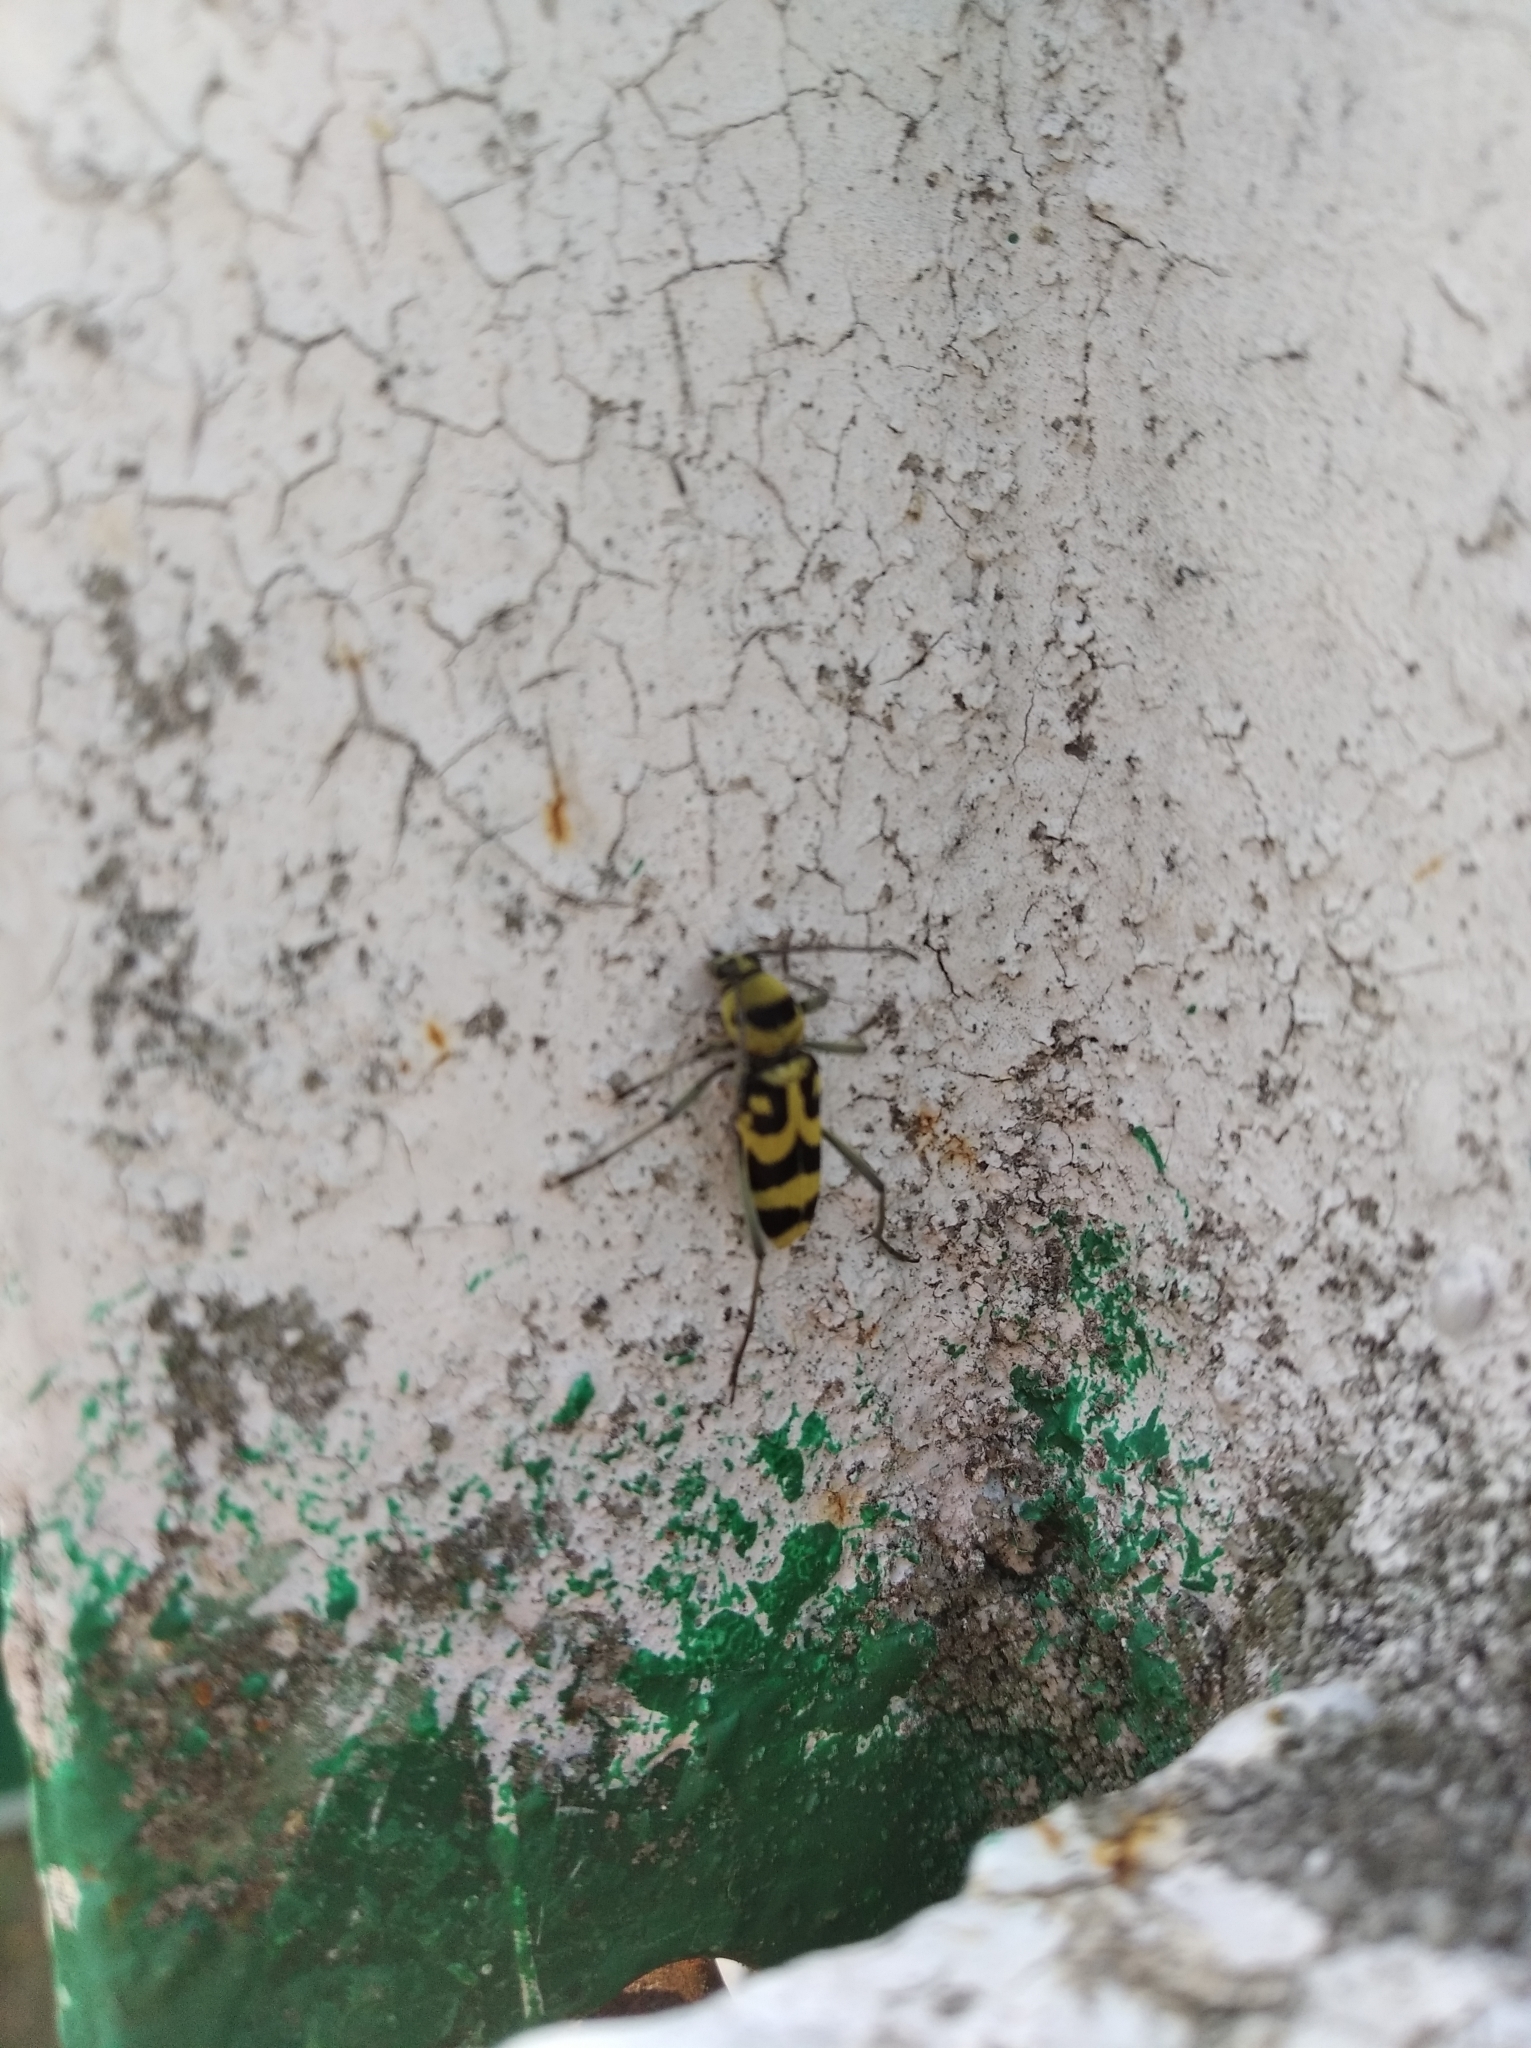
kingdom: Animalia
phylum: Arthropoda
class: Insecta
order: Coleoptera
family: Cerambycidae
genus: Chlorophorus
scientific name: Chlorophorus varius
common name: Grape wood borer
